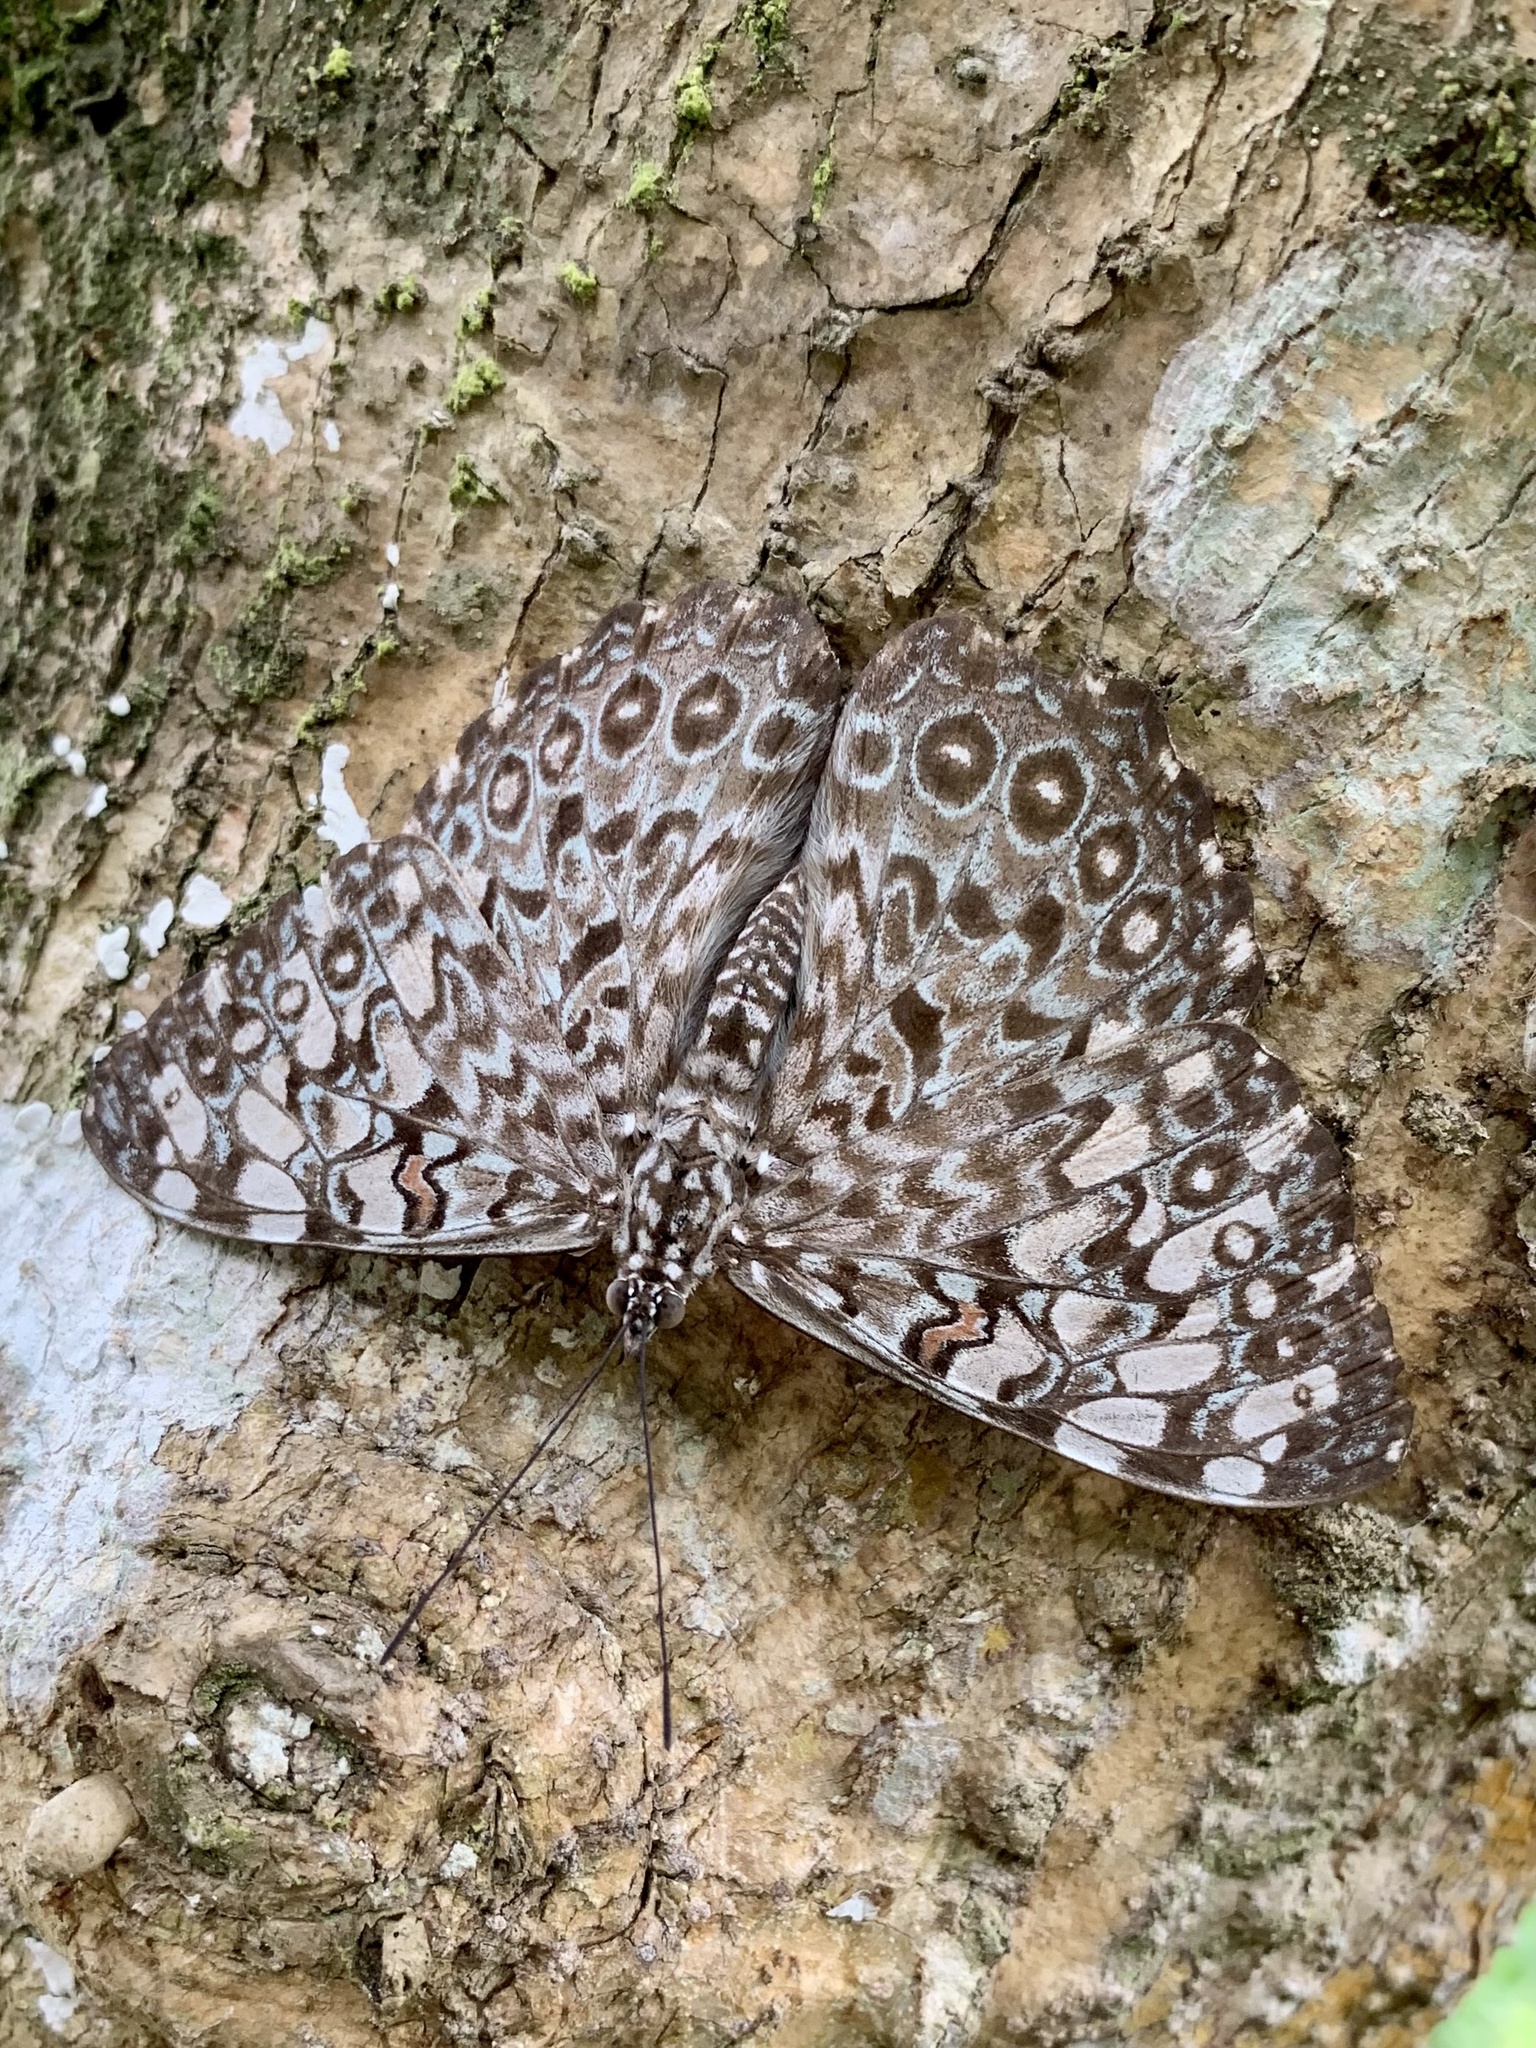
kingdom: Animalia
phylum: Arthropoda
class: Insecta
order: Lepidoptera
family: Nymphalidae
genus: Hamadryas
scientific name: Hamadryas feronia
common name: Variable cracker
